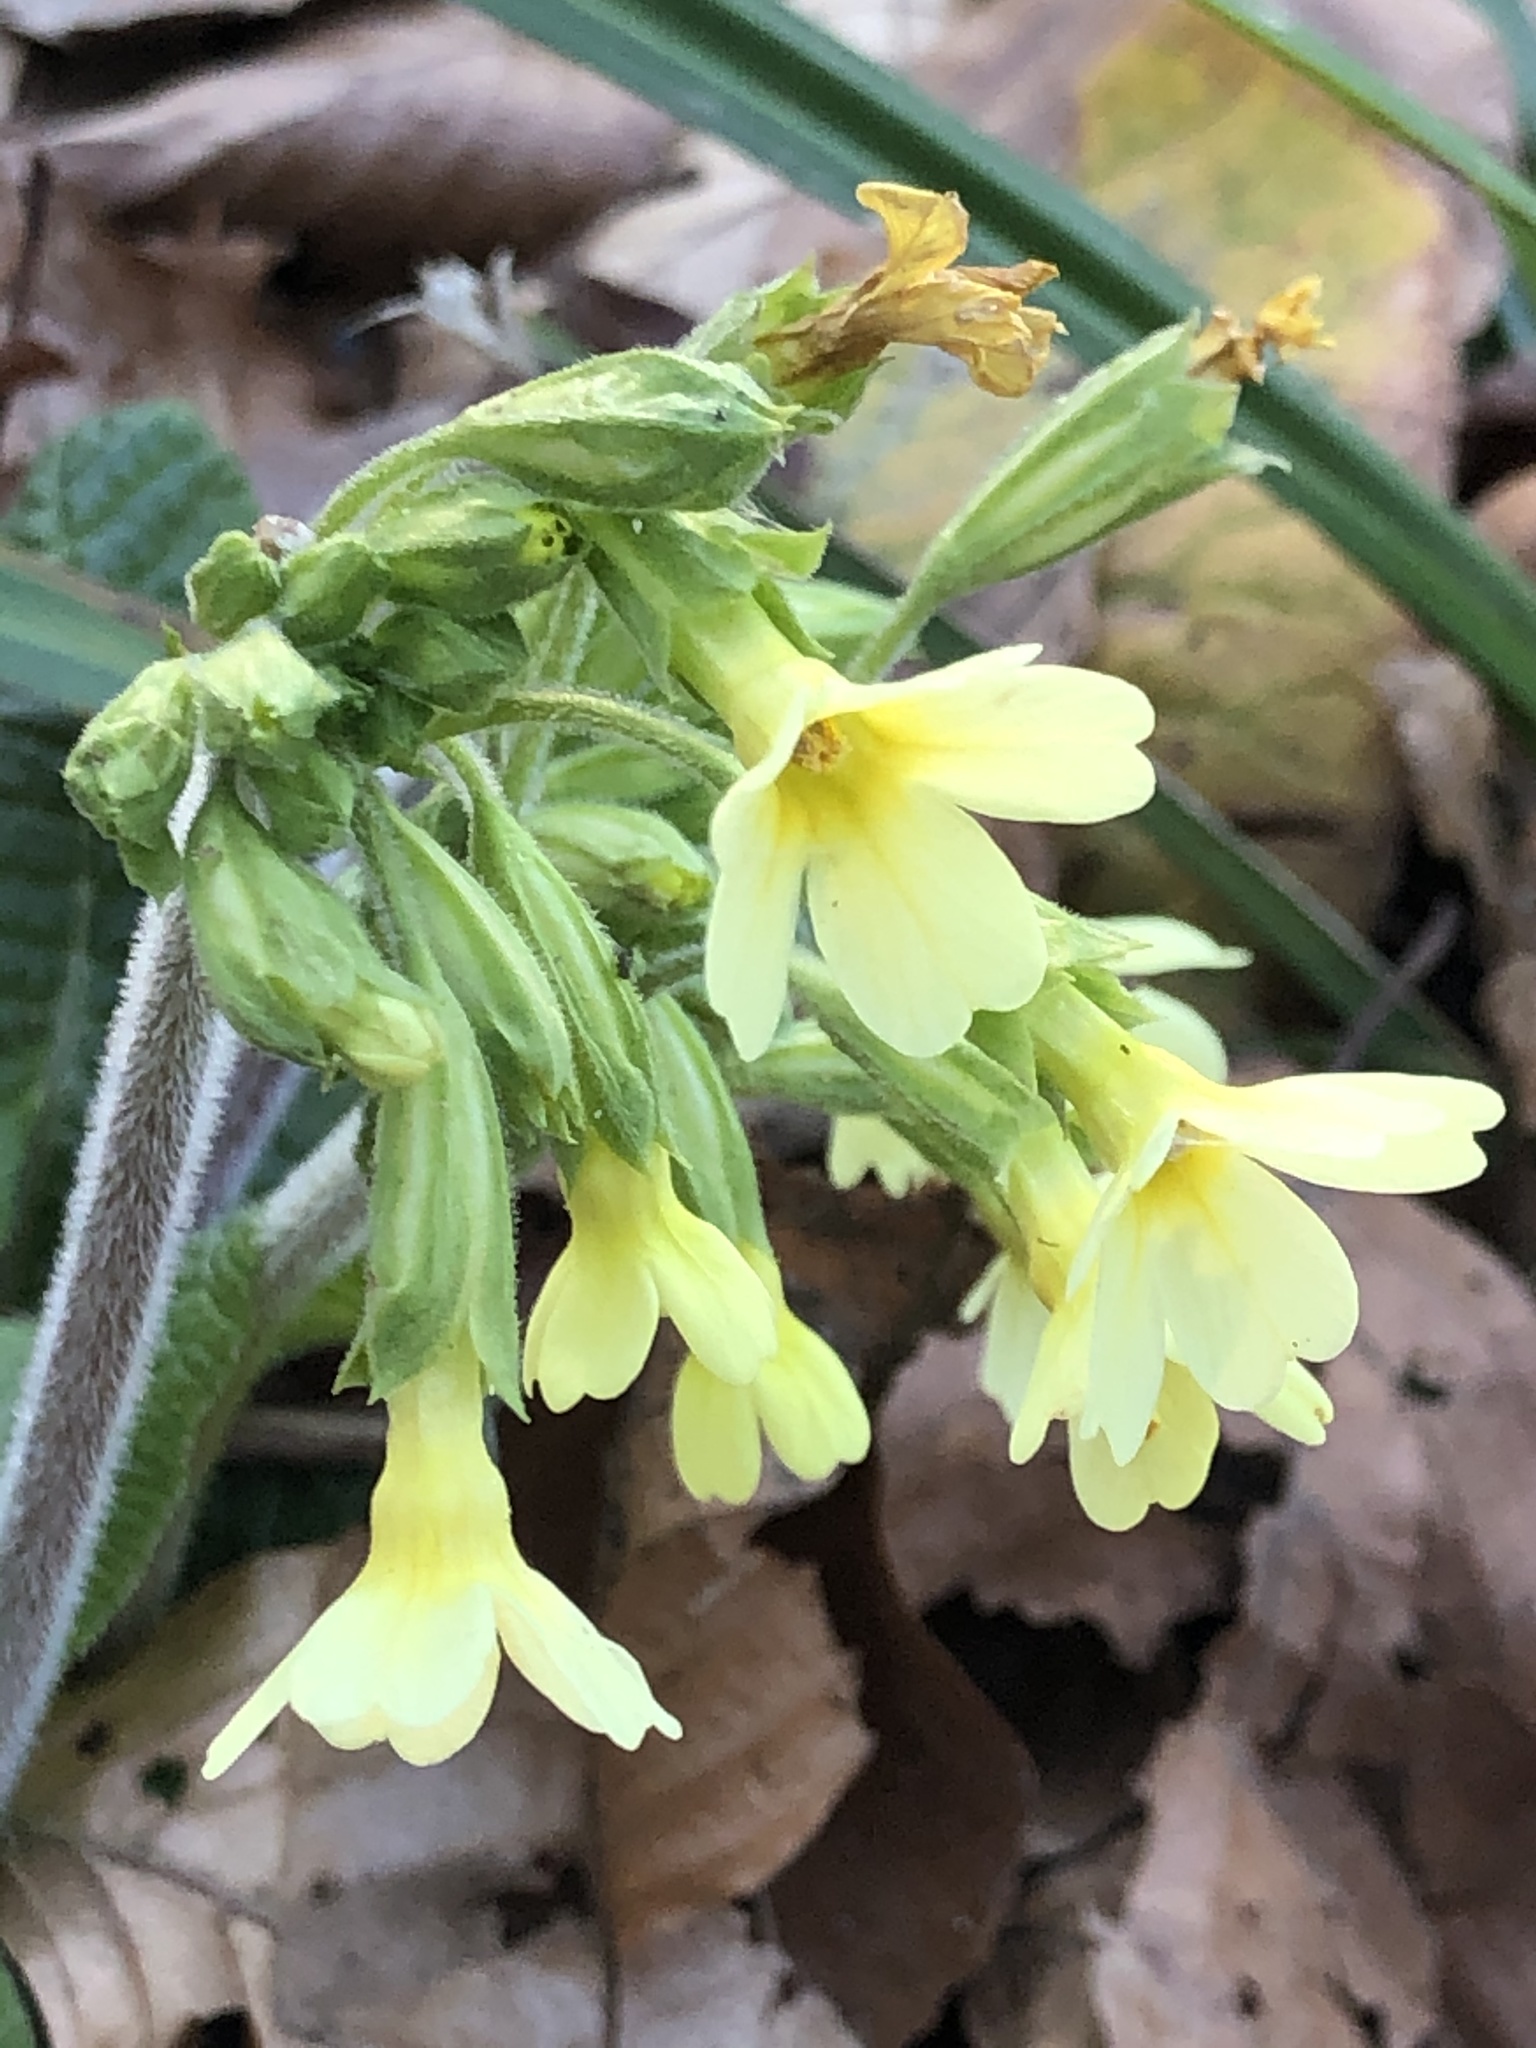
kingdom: Plantae
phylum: Tracheophyta
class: Magnoliopsida
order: Ericales
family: Primulaceae
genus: Primula
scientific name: Primula elatior
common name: Oxlip
